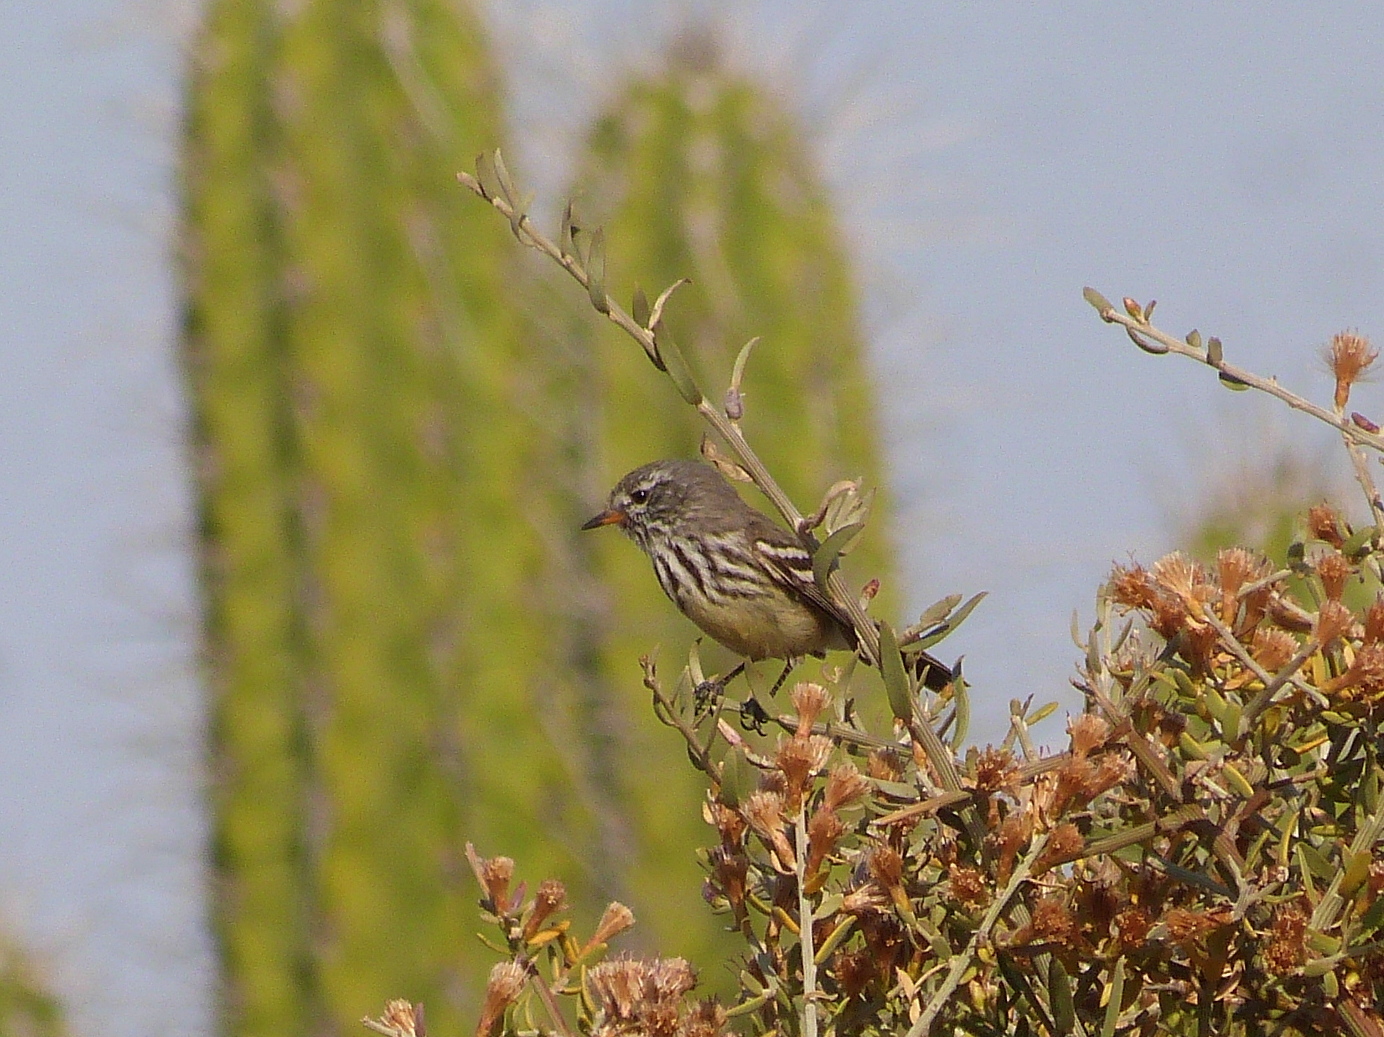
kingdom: Animalia
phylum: Chordata
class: Aves
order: Passeriformes
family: Tyrannidae
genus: Anairetes
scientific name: Anairetes flavirostris
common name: Yellow-billed tit-tyrant
